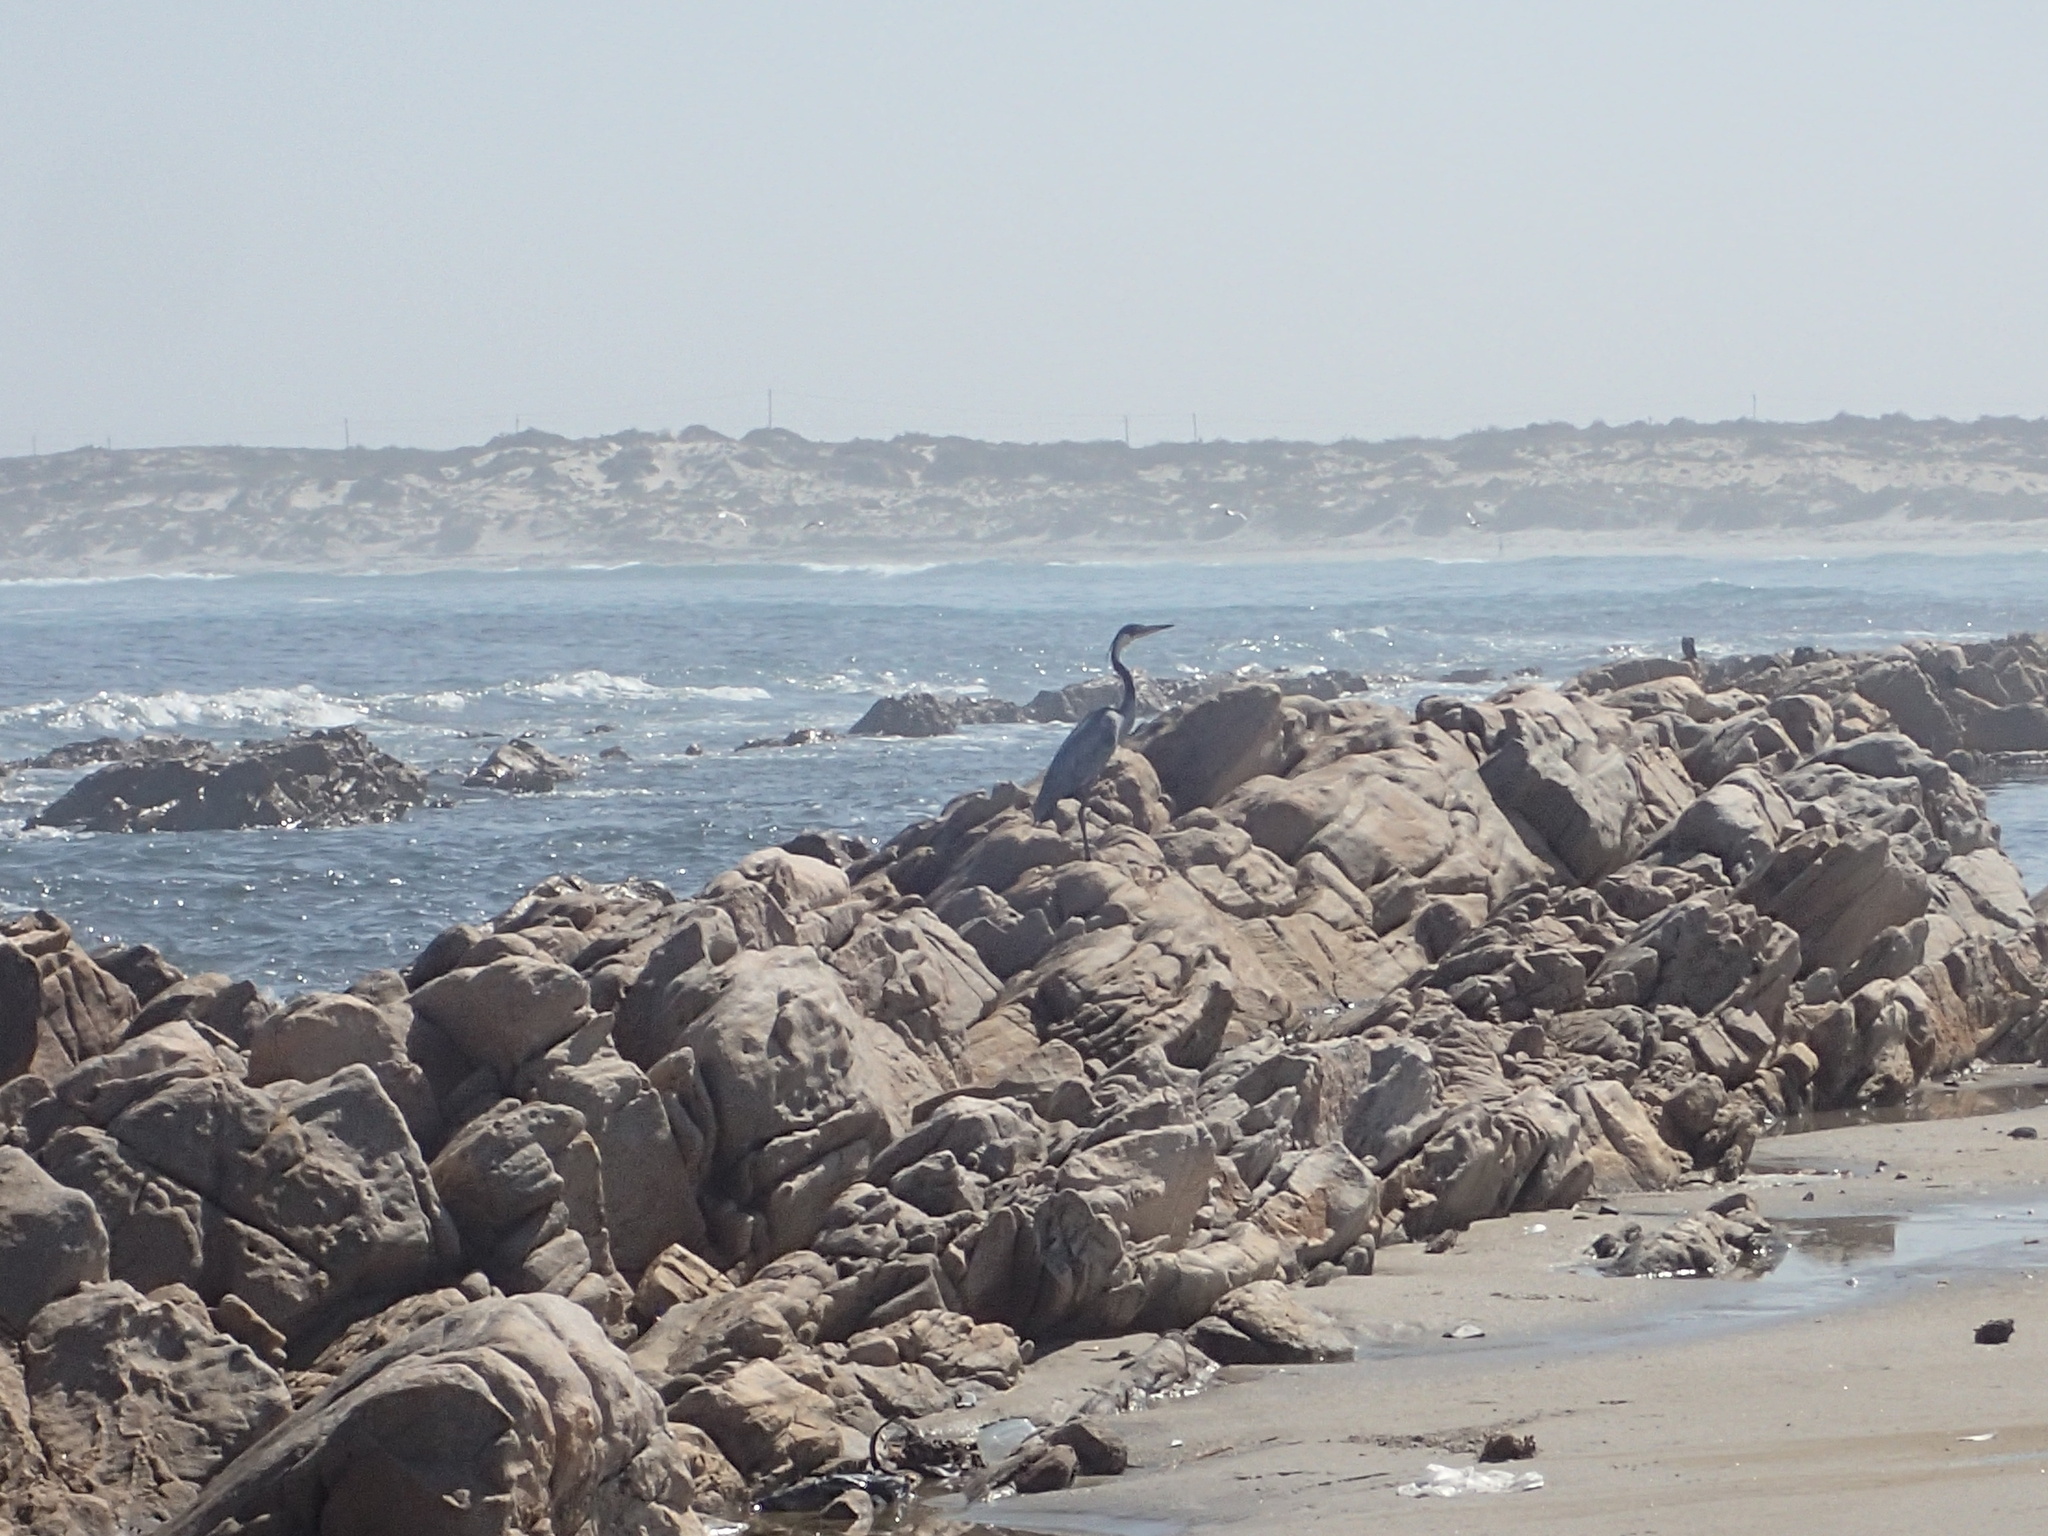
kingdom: Animalia
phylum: Chordata
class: Aves
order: Pelecaniformes
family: Ardeidae
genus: Ardea
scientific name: Ardea melanocephala
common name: Black-headed heron
